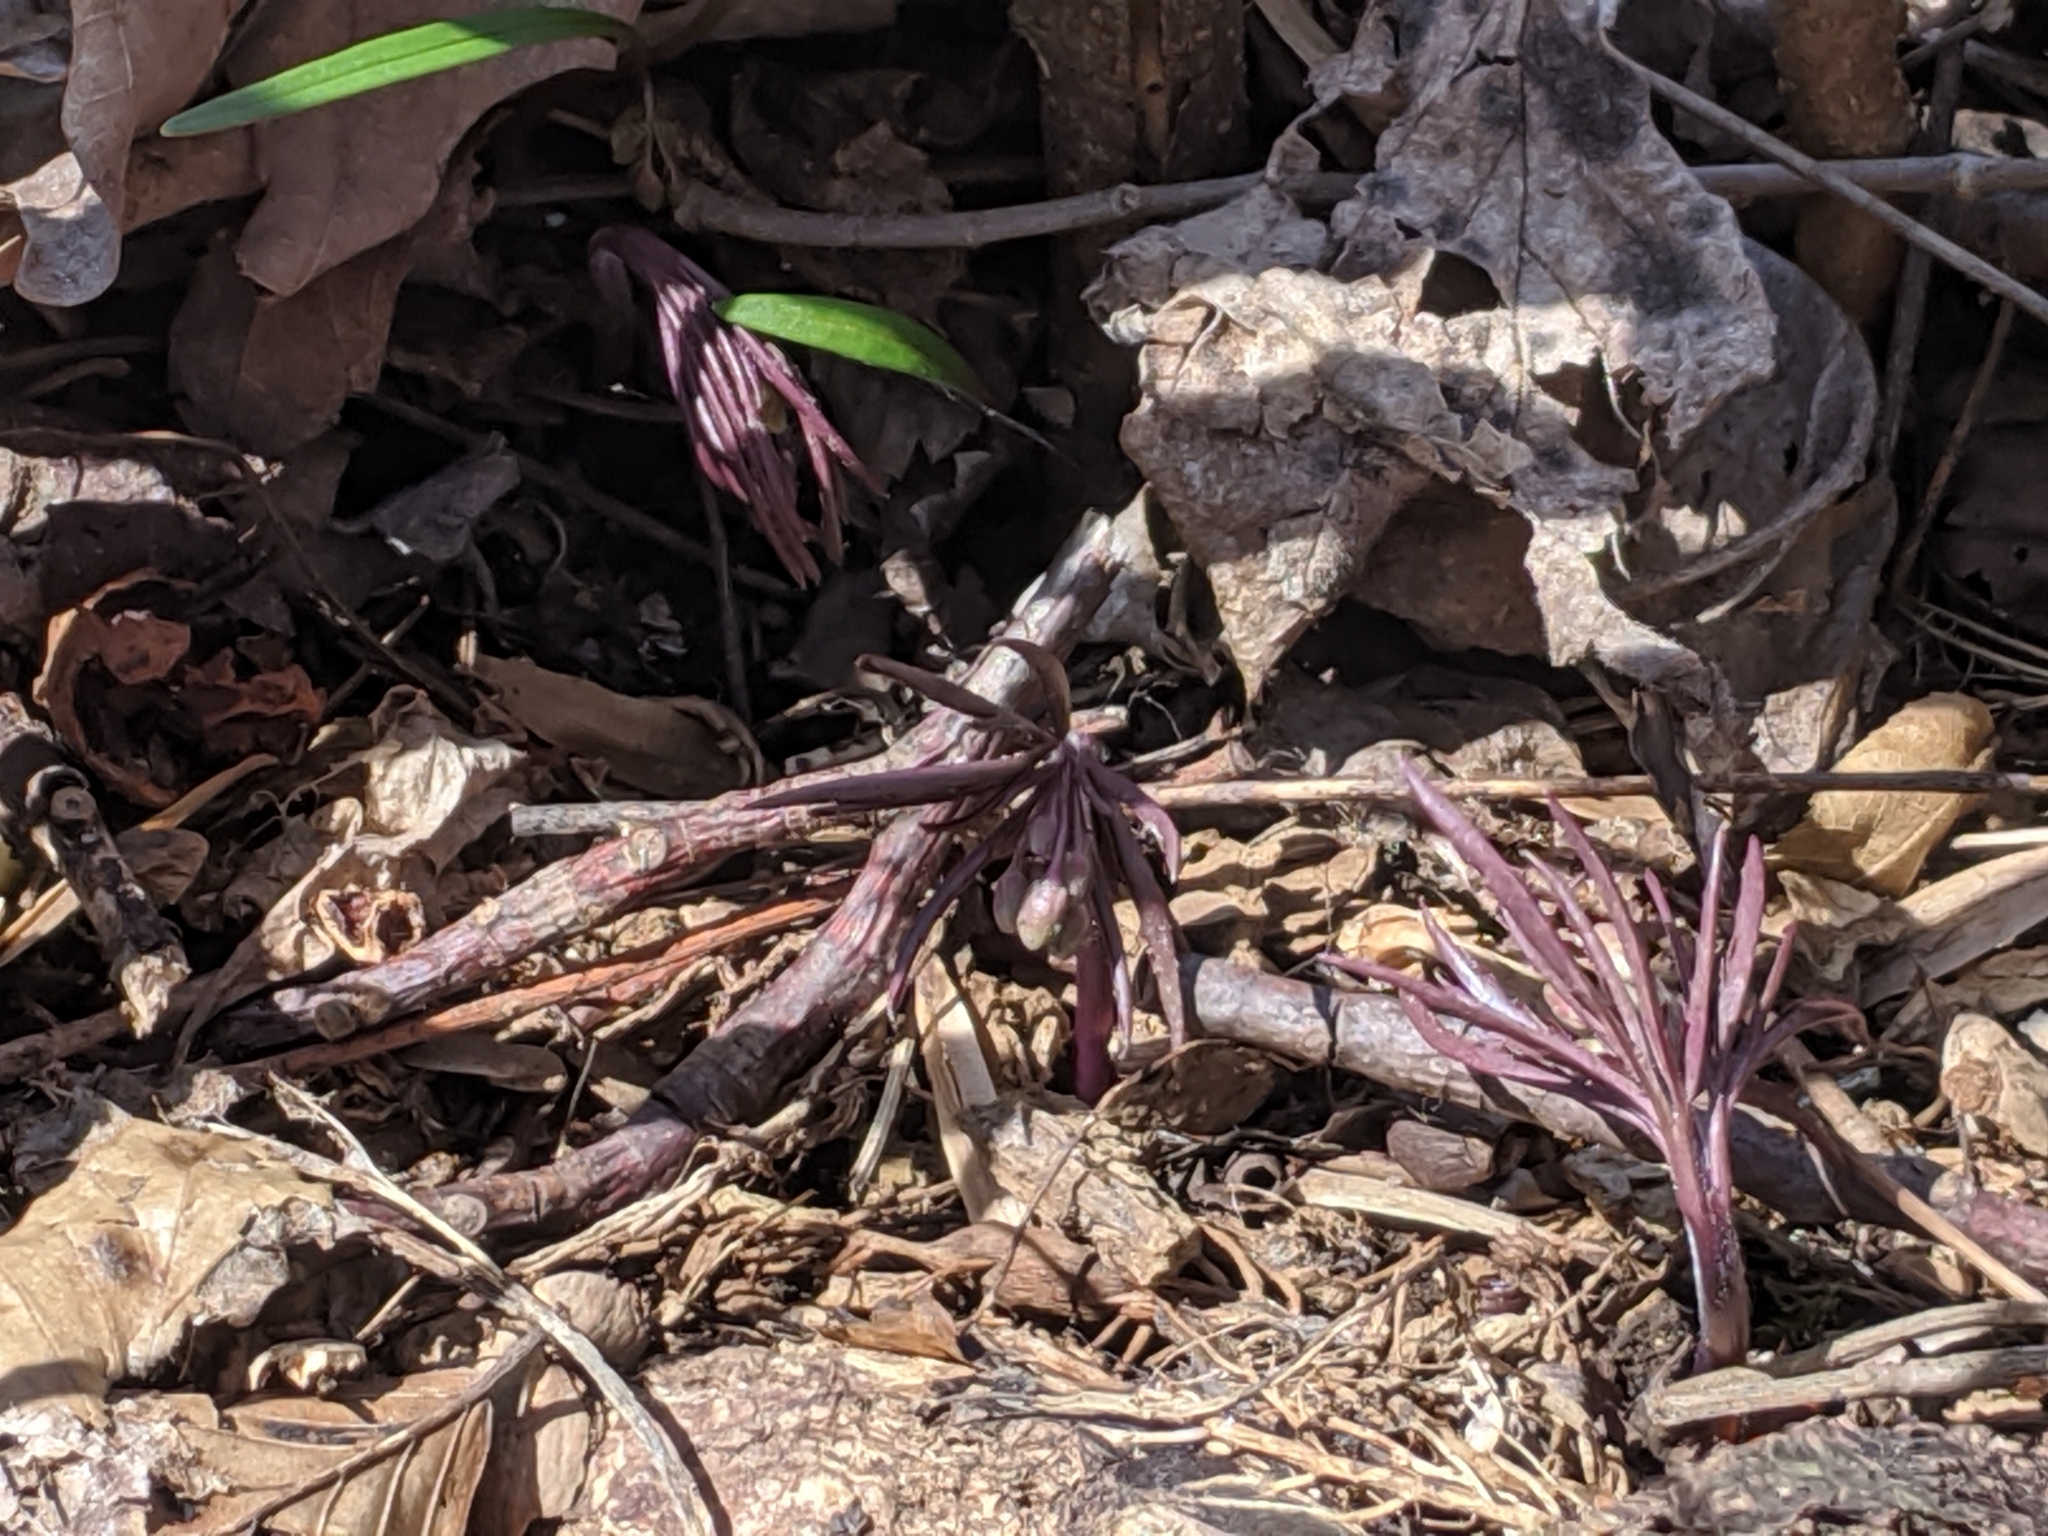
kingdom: Plantae
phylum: Tracheophyta
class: Magnoliopsida
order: Brassicales
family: Brassicaceae
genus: Cardamine
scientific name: Cardamine concatenata
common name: Cut-leaf toothcup
